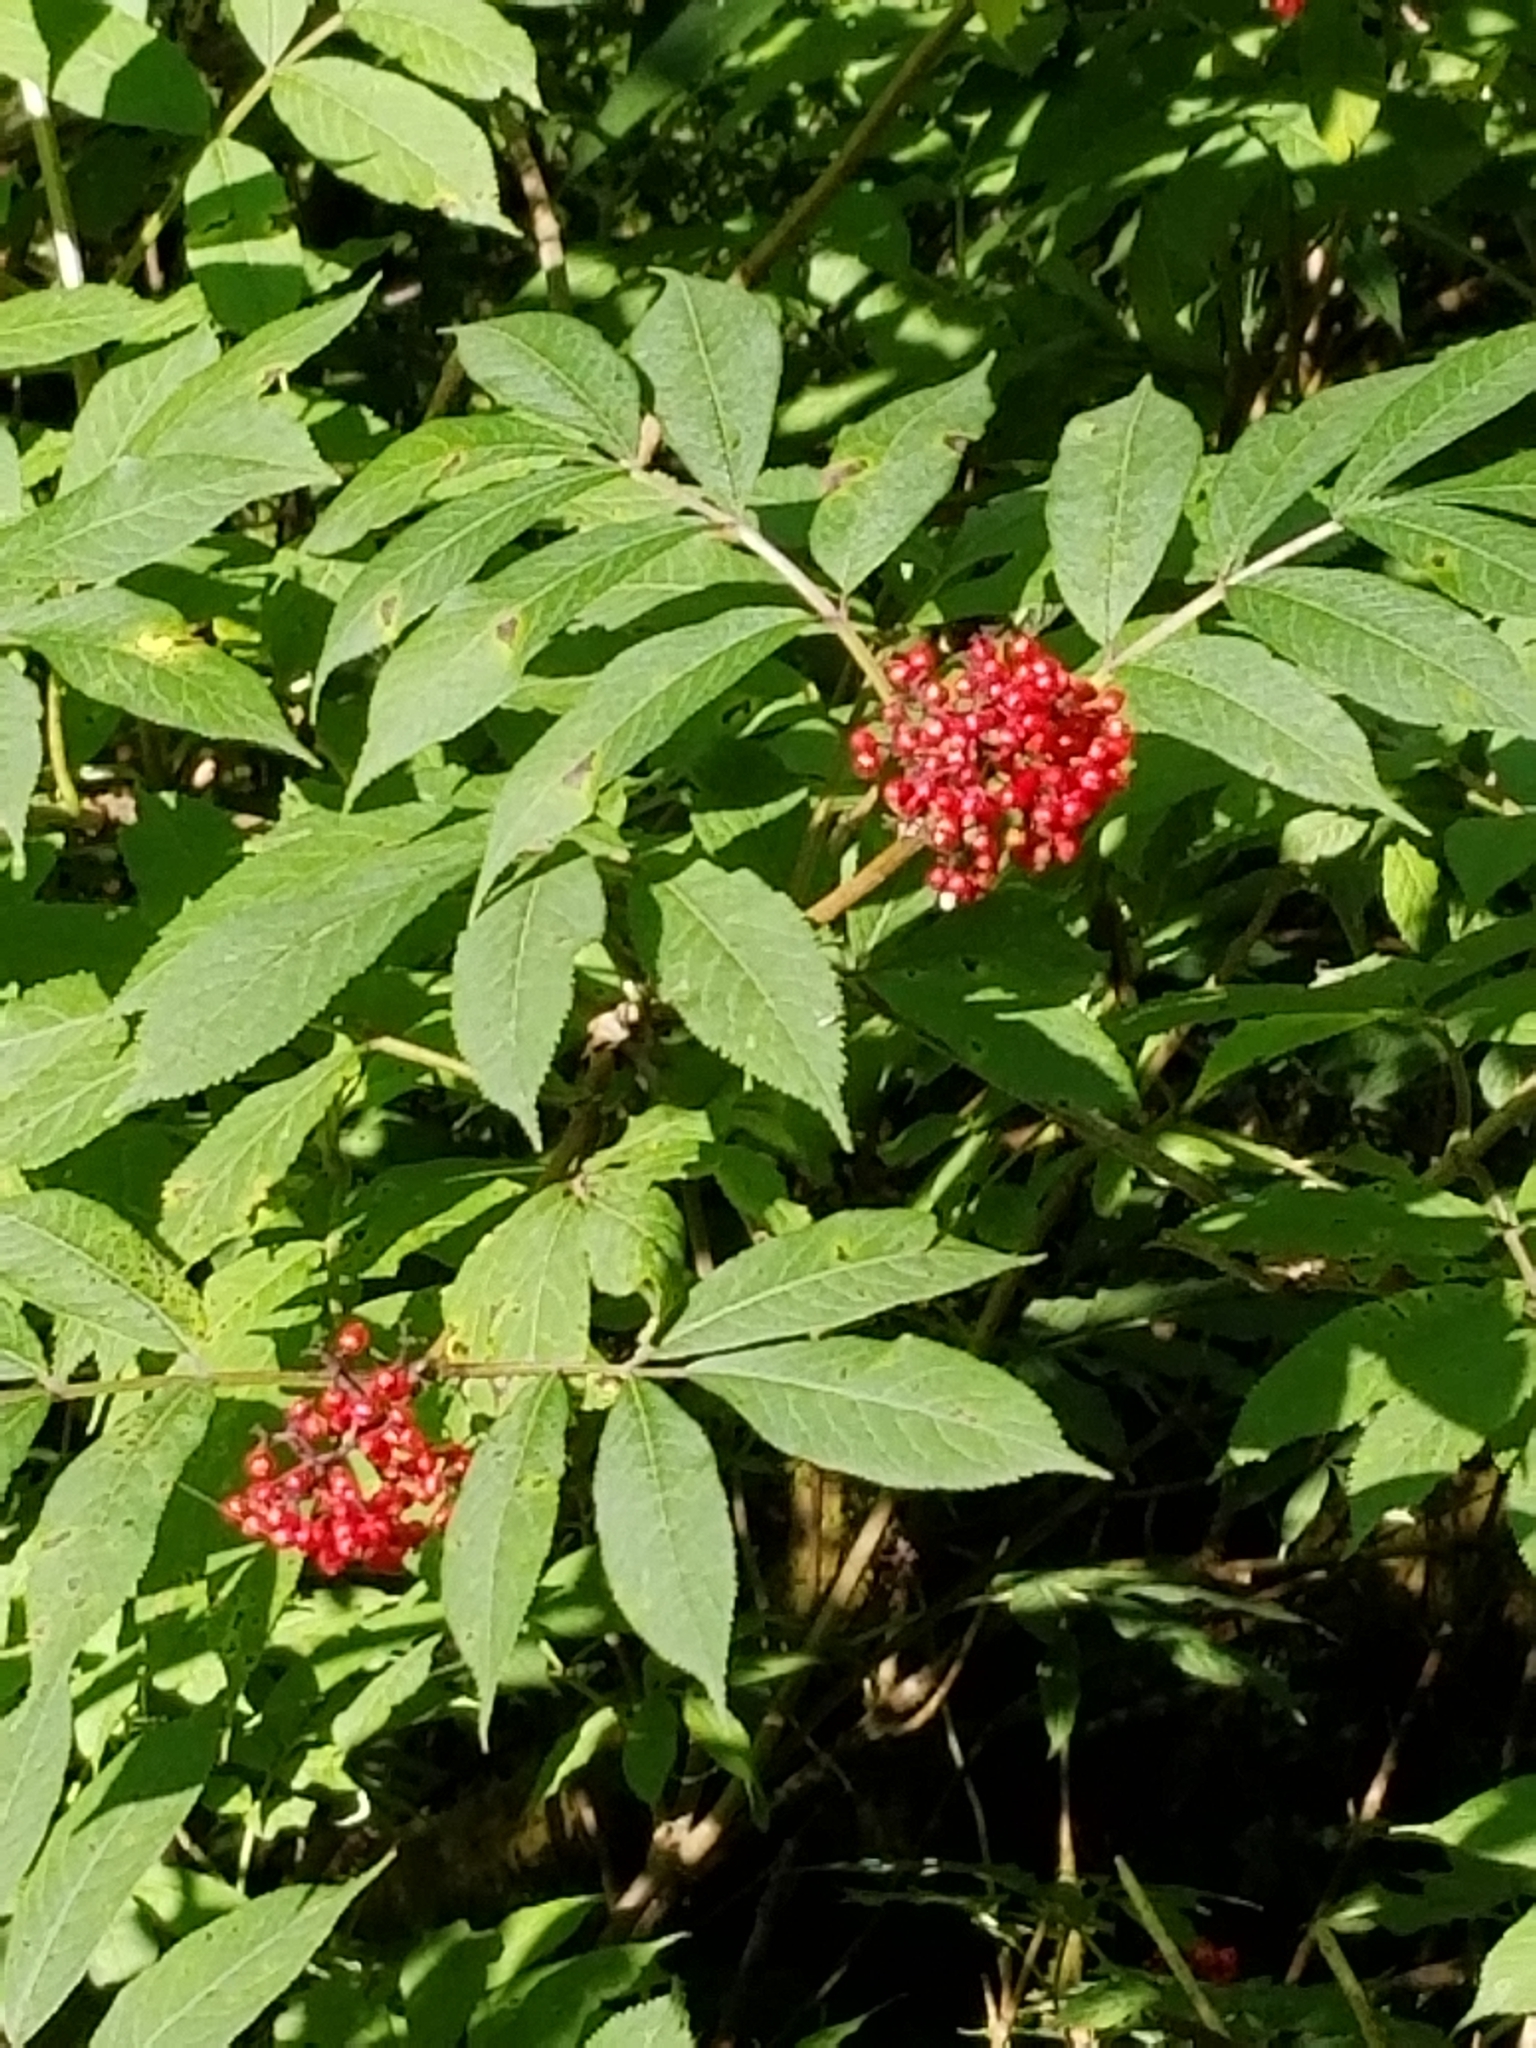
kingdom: Plantae
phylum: Tracheophyta
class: Magnoliopsida
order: Dipsacales
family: Viburnaceae
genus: Sambucus
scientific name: Sambucus racemosa
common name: Red-berried elder
